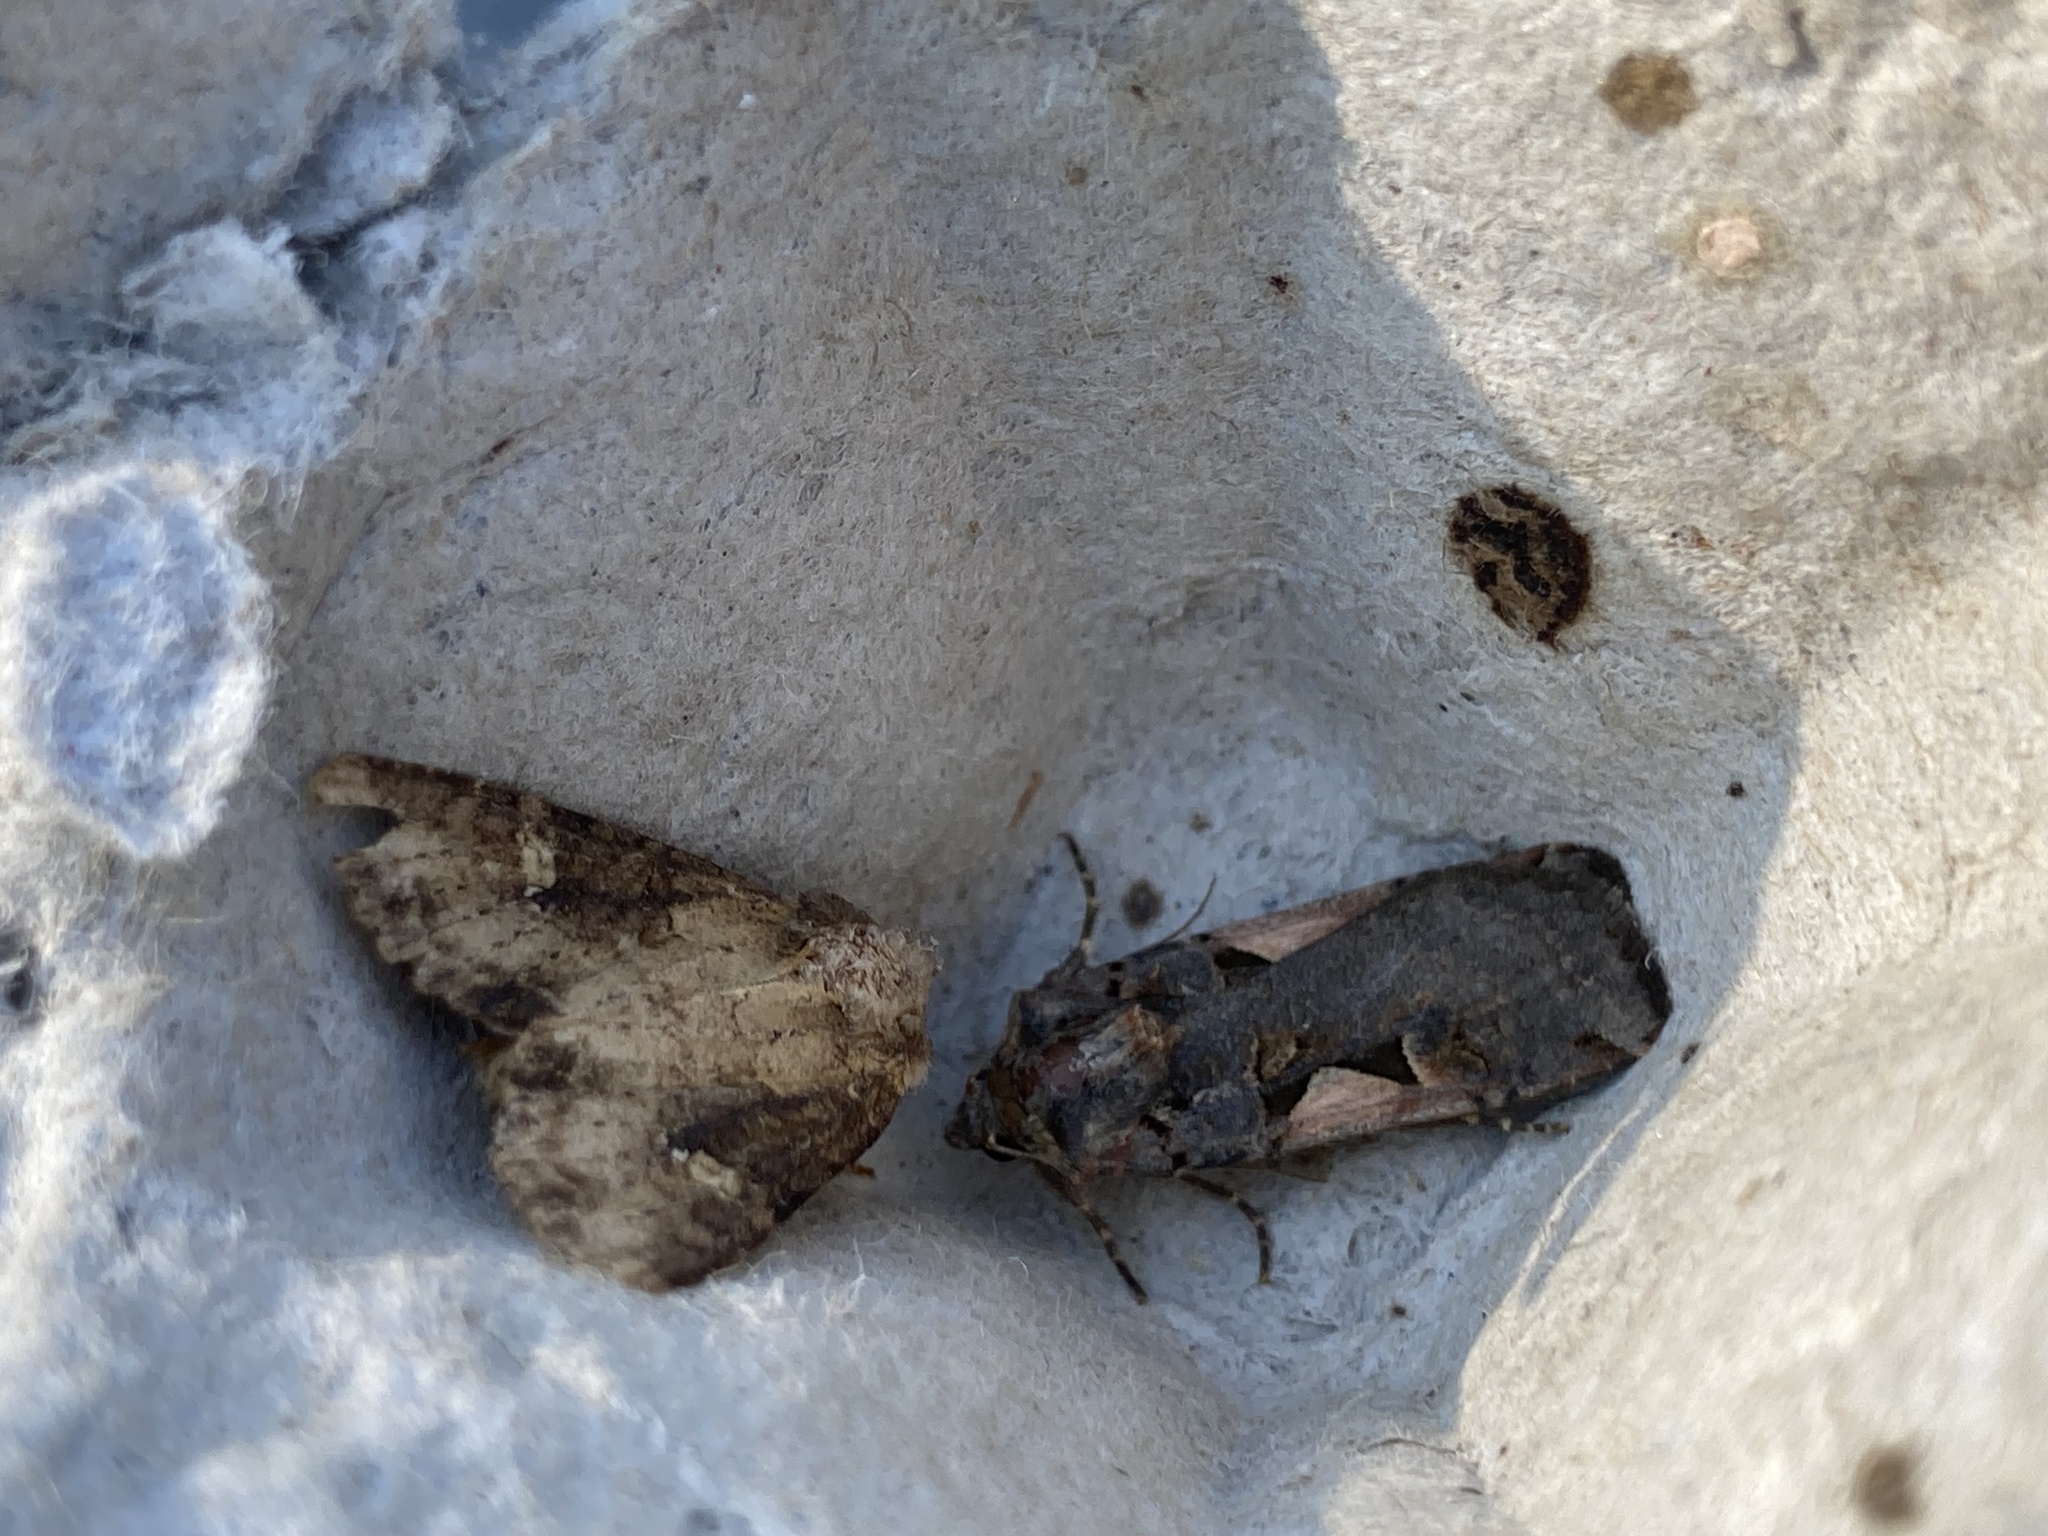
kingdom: Animalia
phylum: Arthropoda
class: Insecta
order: Lepidoptera
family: Noctuidae
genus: Xestia
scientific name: Xestia c-nigrum
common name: Setaceous hebrew character
